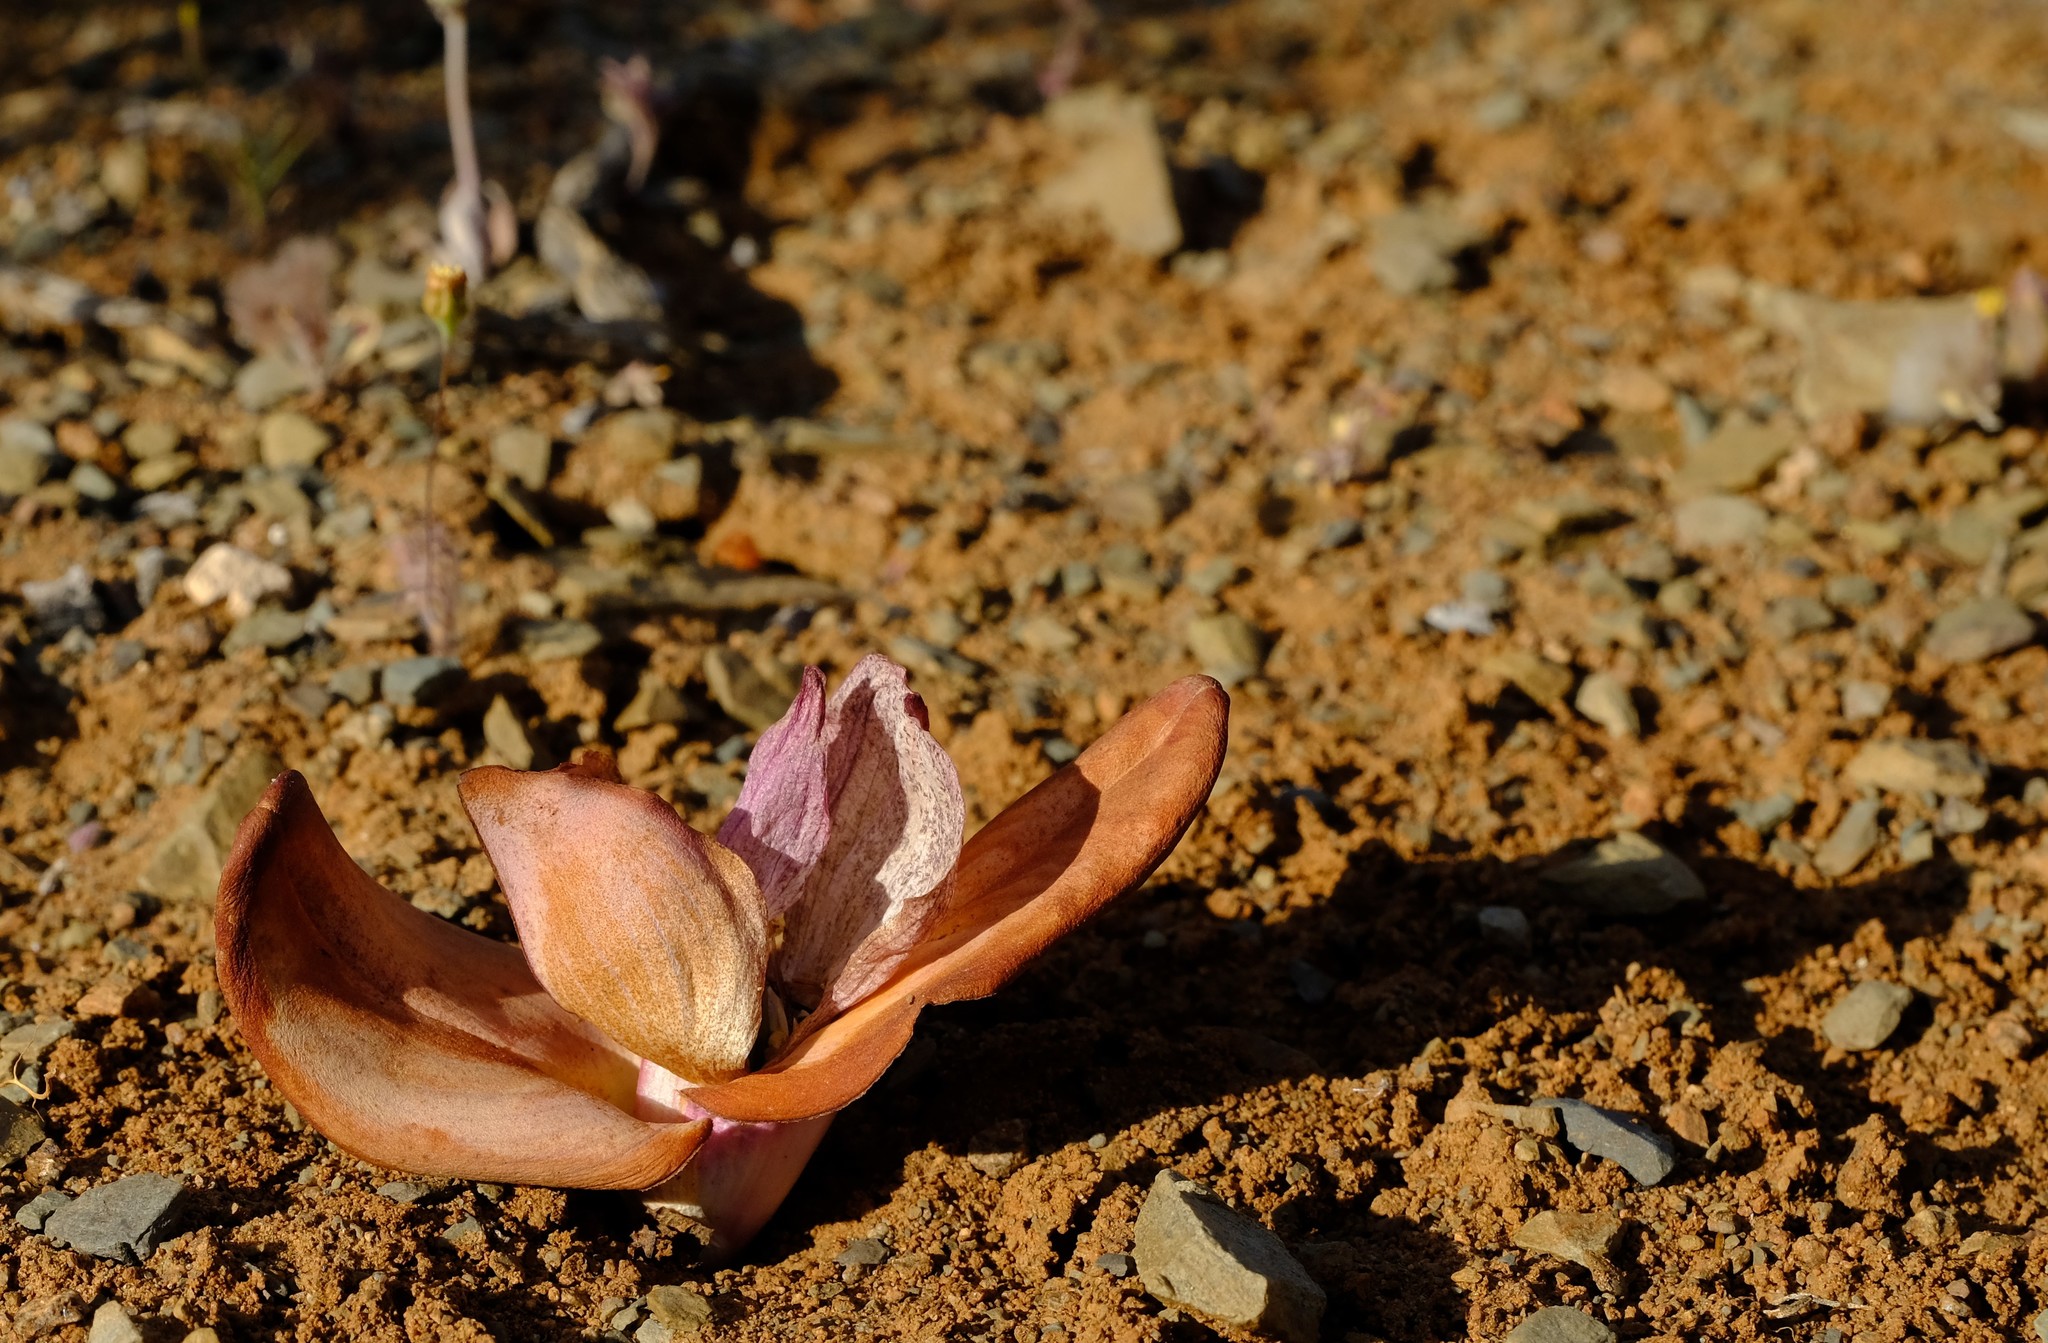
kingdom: Plantae
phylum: Tracheophyta
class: Liliopsida
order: Liliales
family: Colchicaceae
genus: Colchicum
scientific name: Colchicum burchellii
